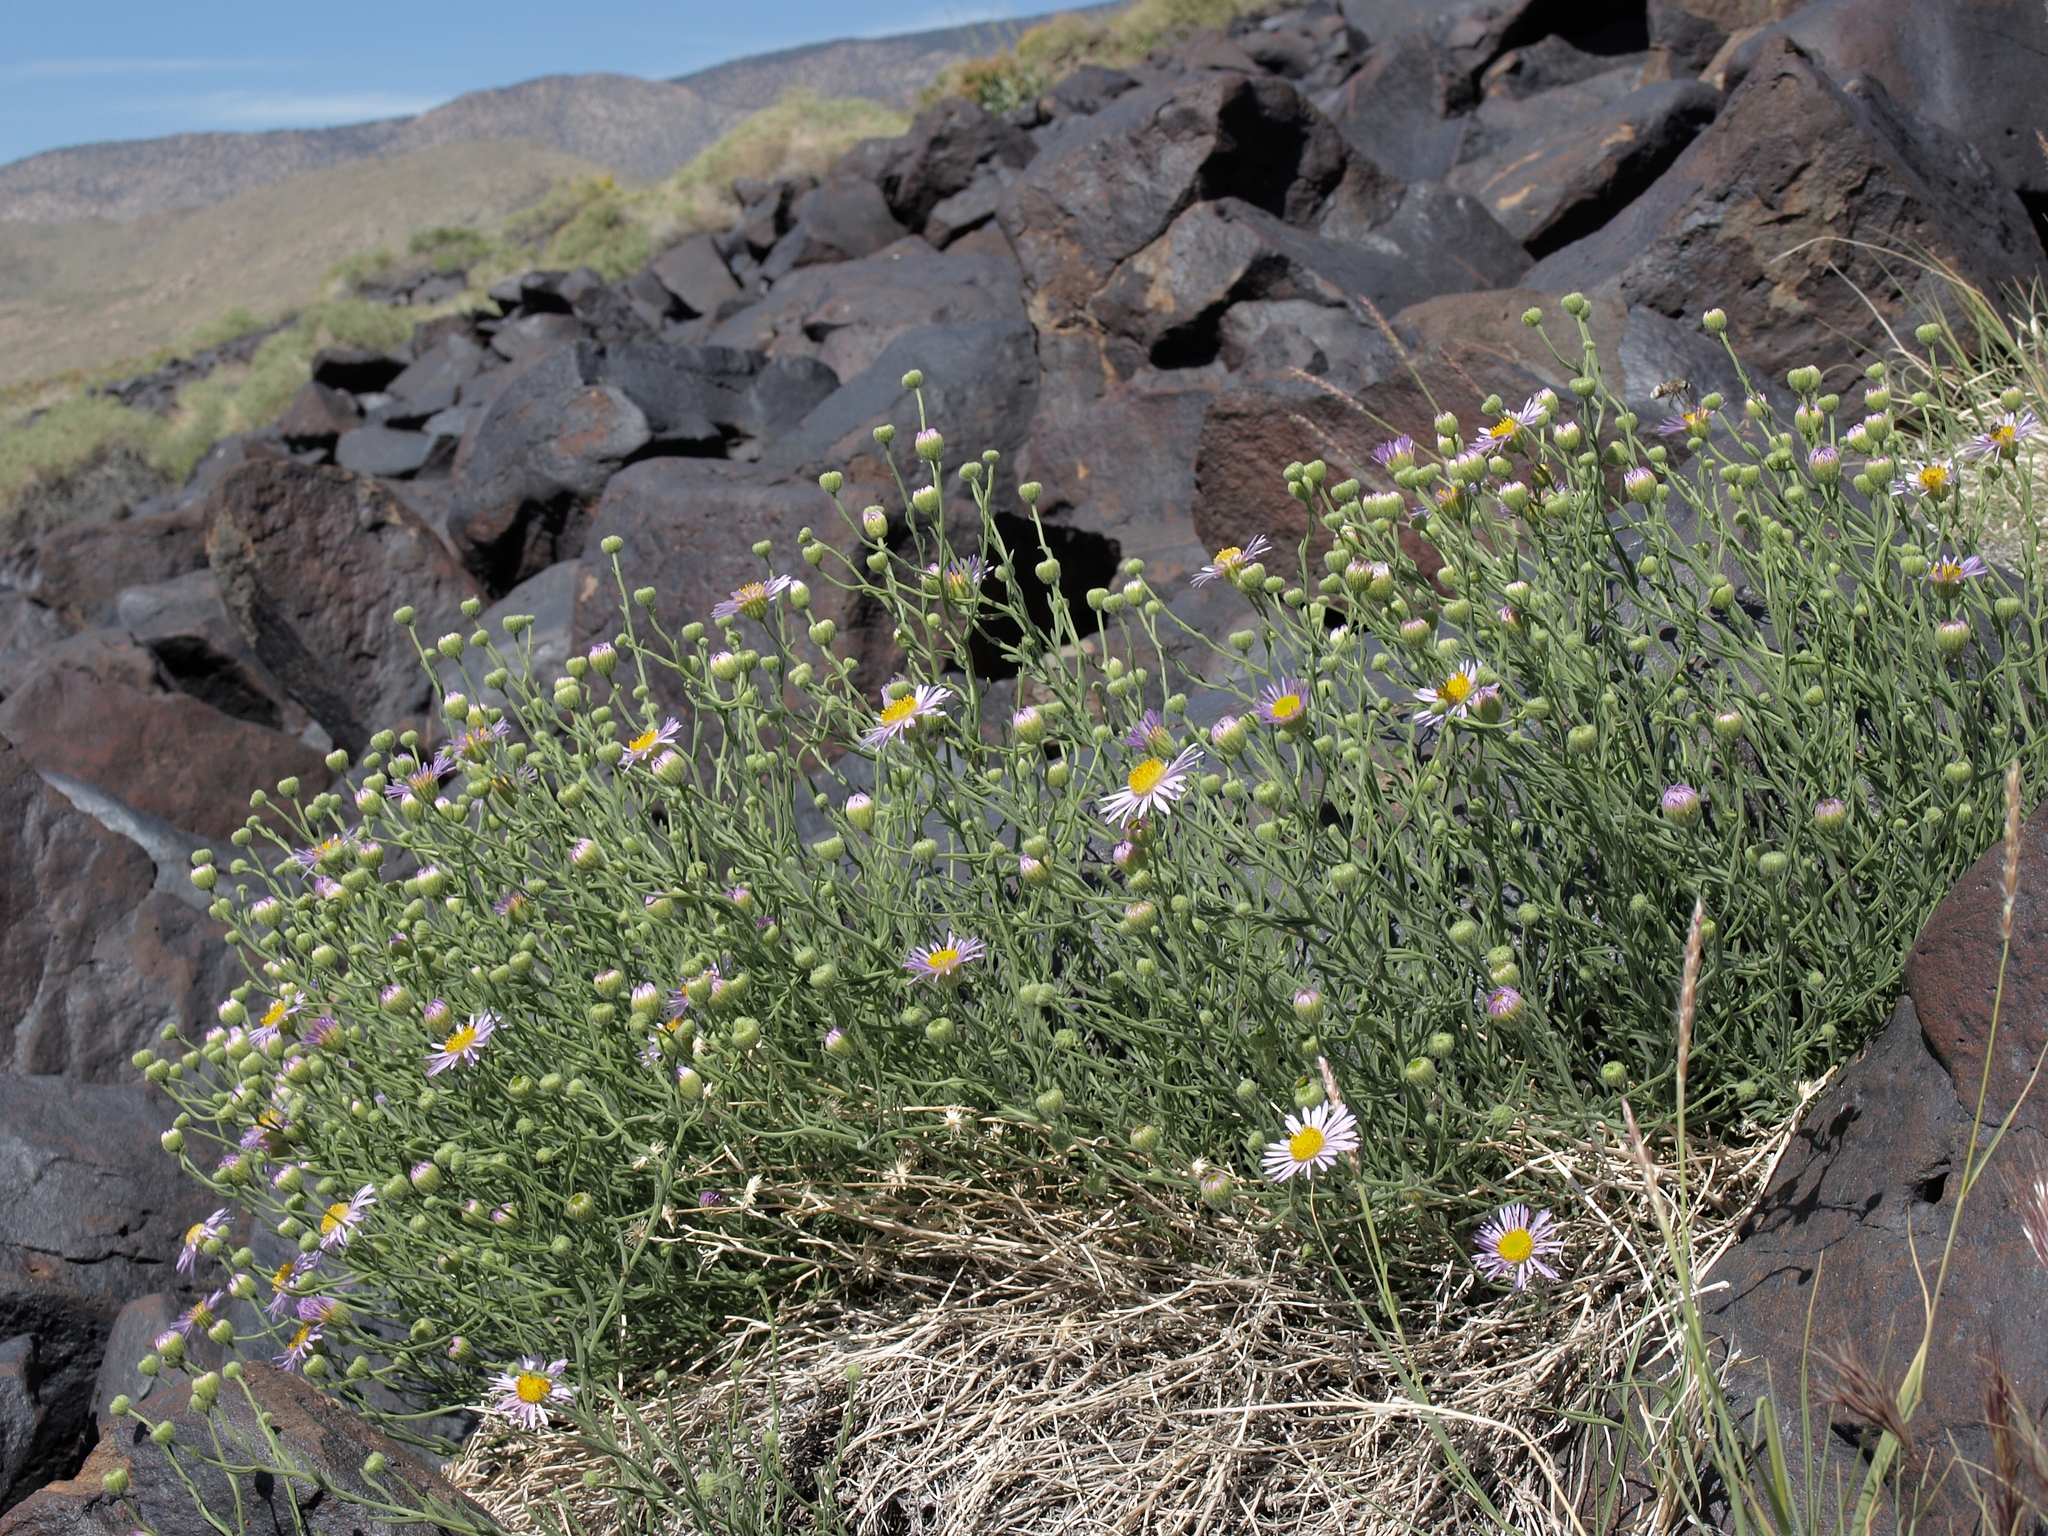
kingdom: Plantae
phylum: Tracheophyta
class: Magnoliopsida
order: Asterales
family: Asteraceae
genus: Erigeron
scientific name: Erigeron breweri
